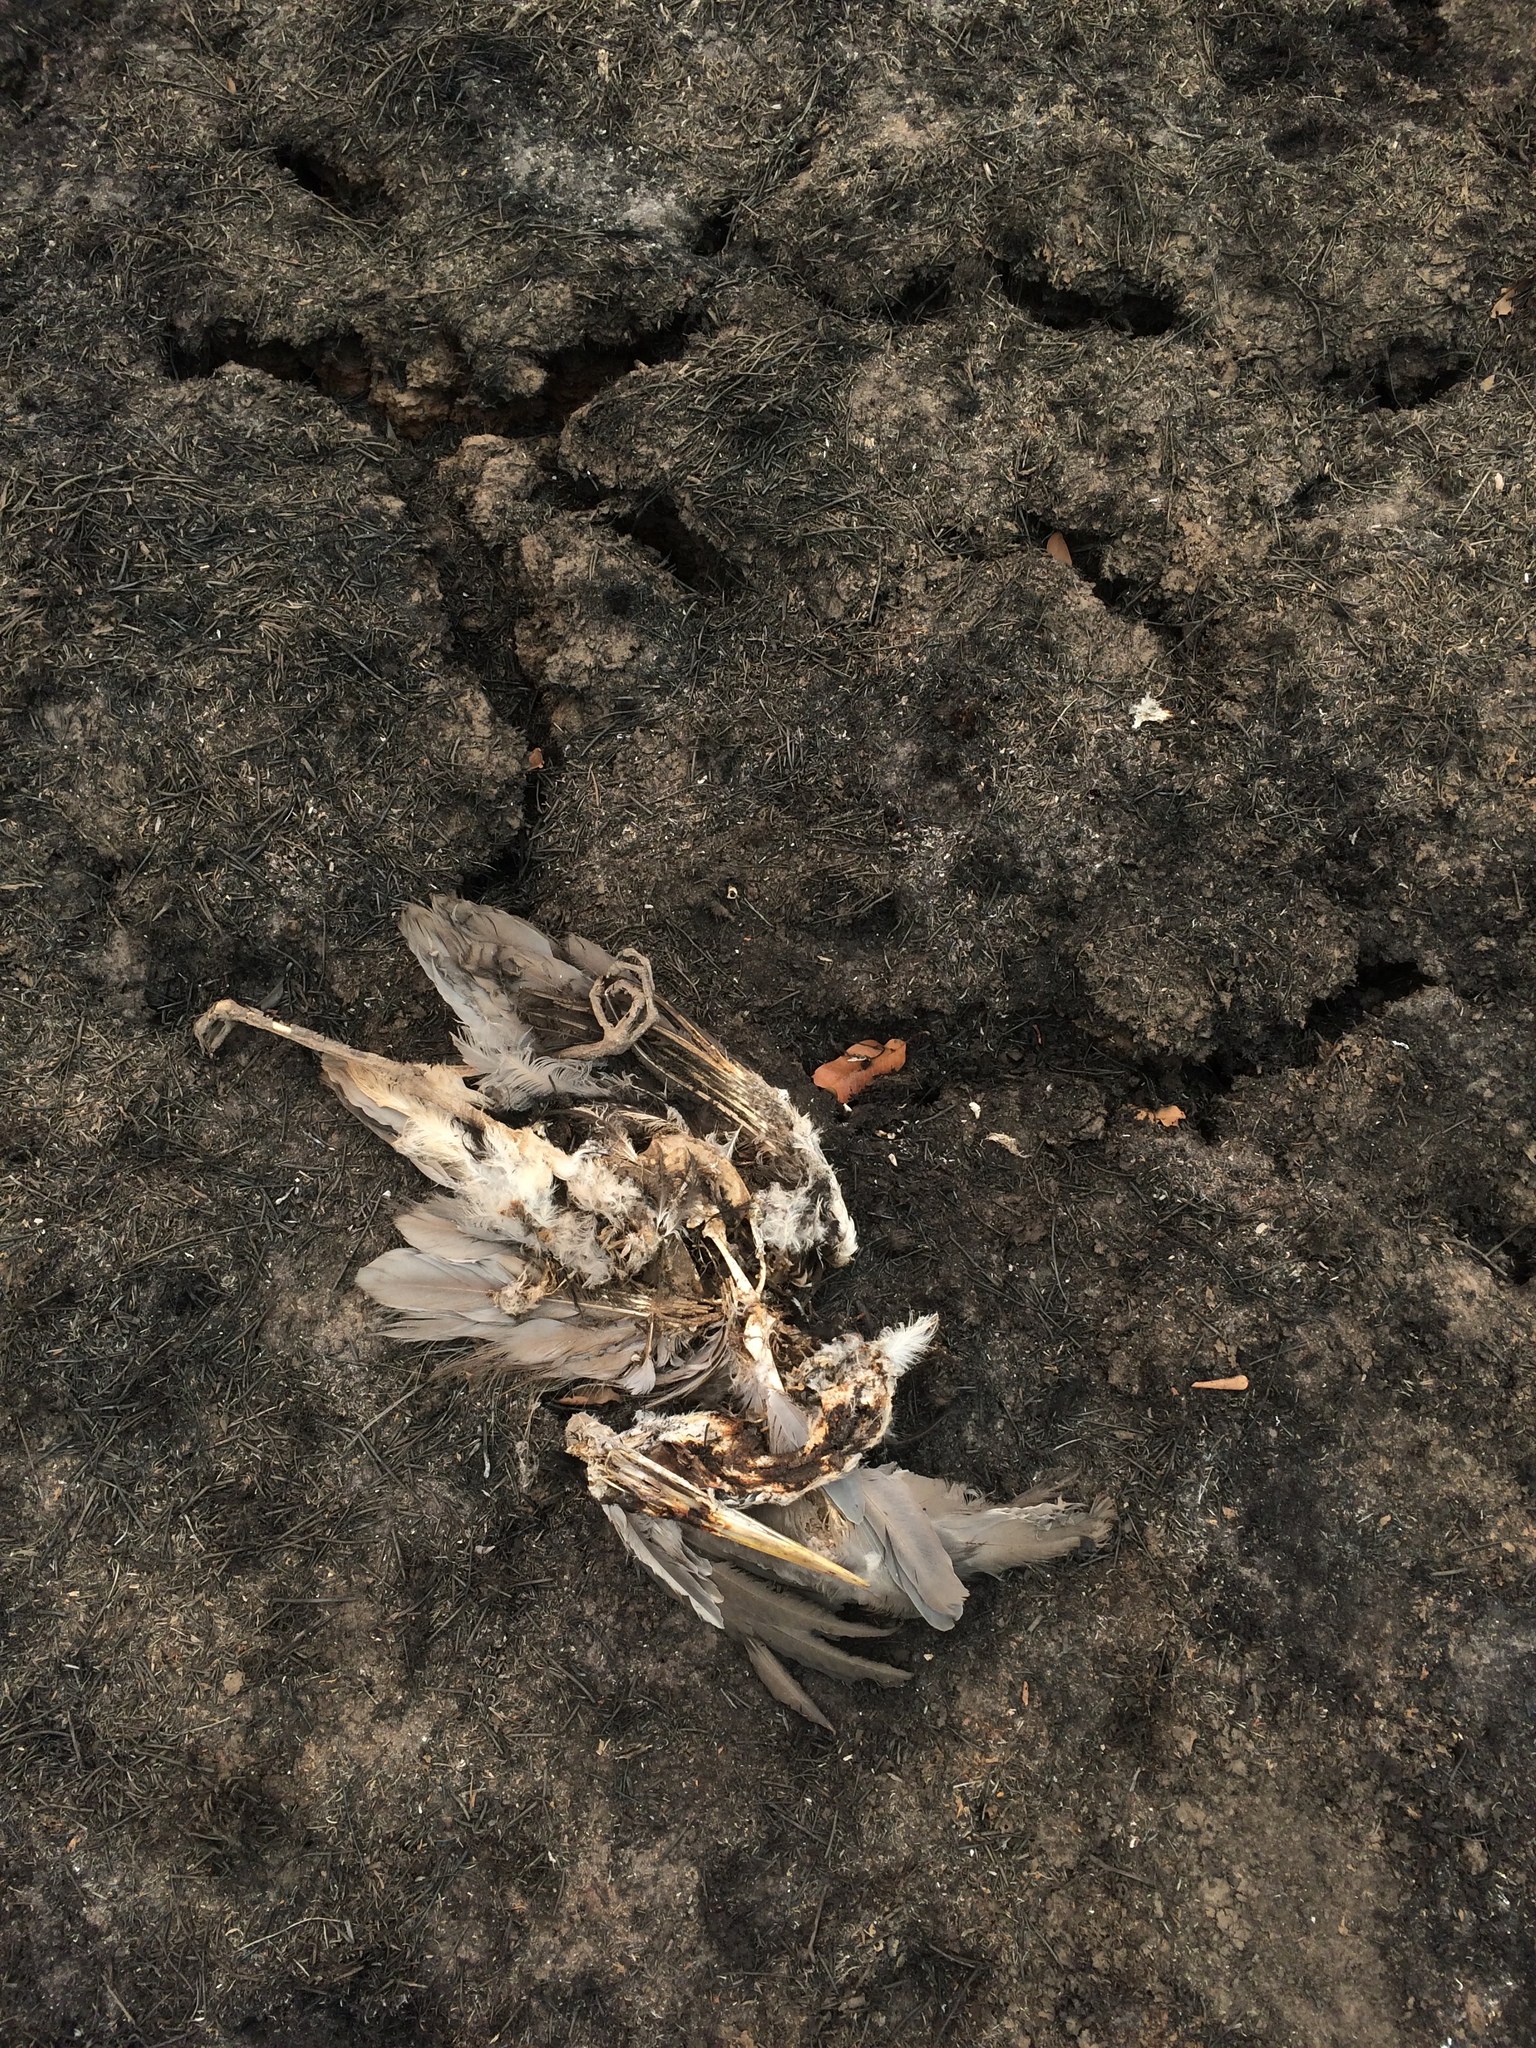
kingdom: Animalia
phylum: Chordata
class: Aves
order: Pelecaniformes
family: Ardeidae
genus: Ardea
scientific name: Ardea cocoi
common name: Cocoi heron
